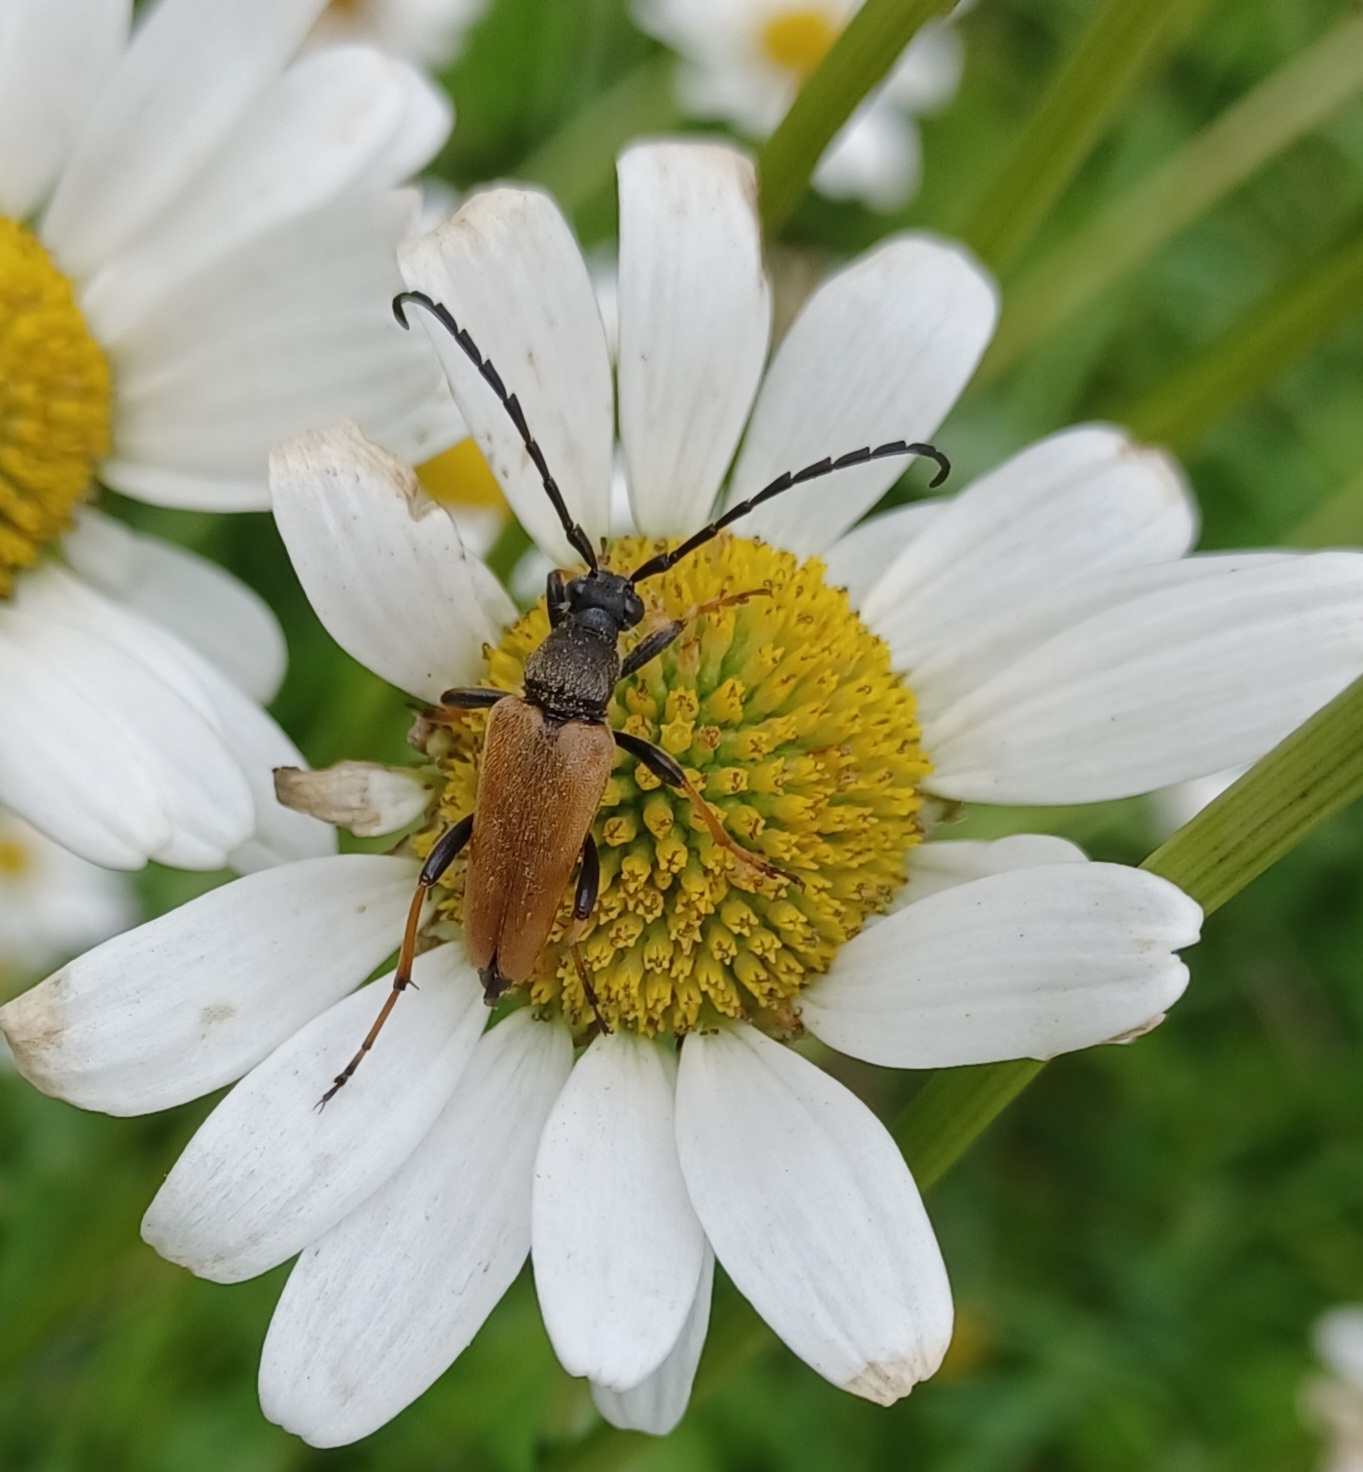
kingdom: Animalia
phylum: Arthropoda
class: Insecta
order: Coleoptera
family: Cerambycidae
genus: Stictoleptura
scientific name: Stictoleptura rubra
